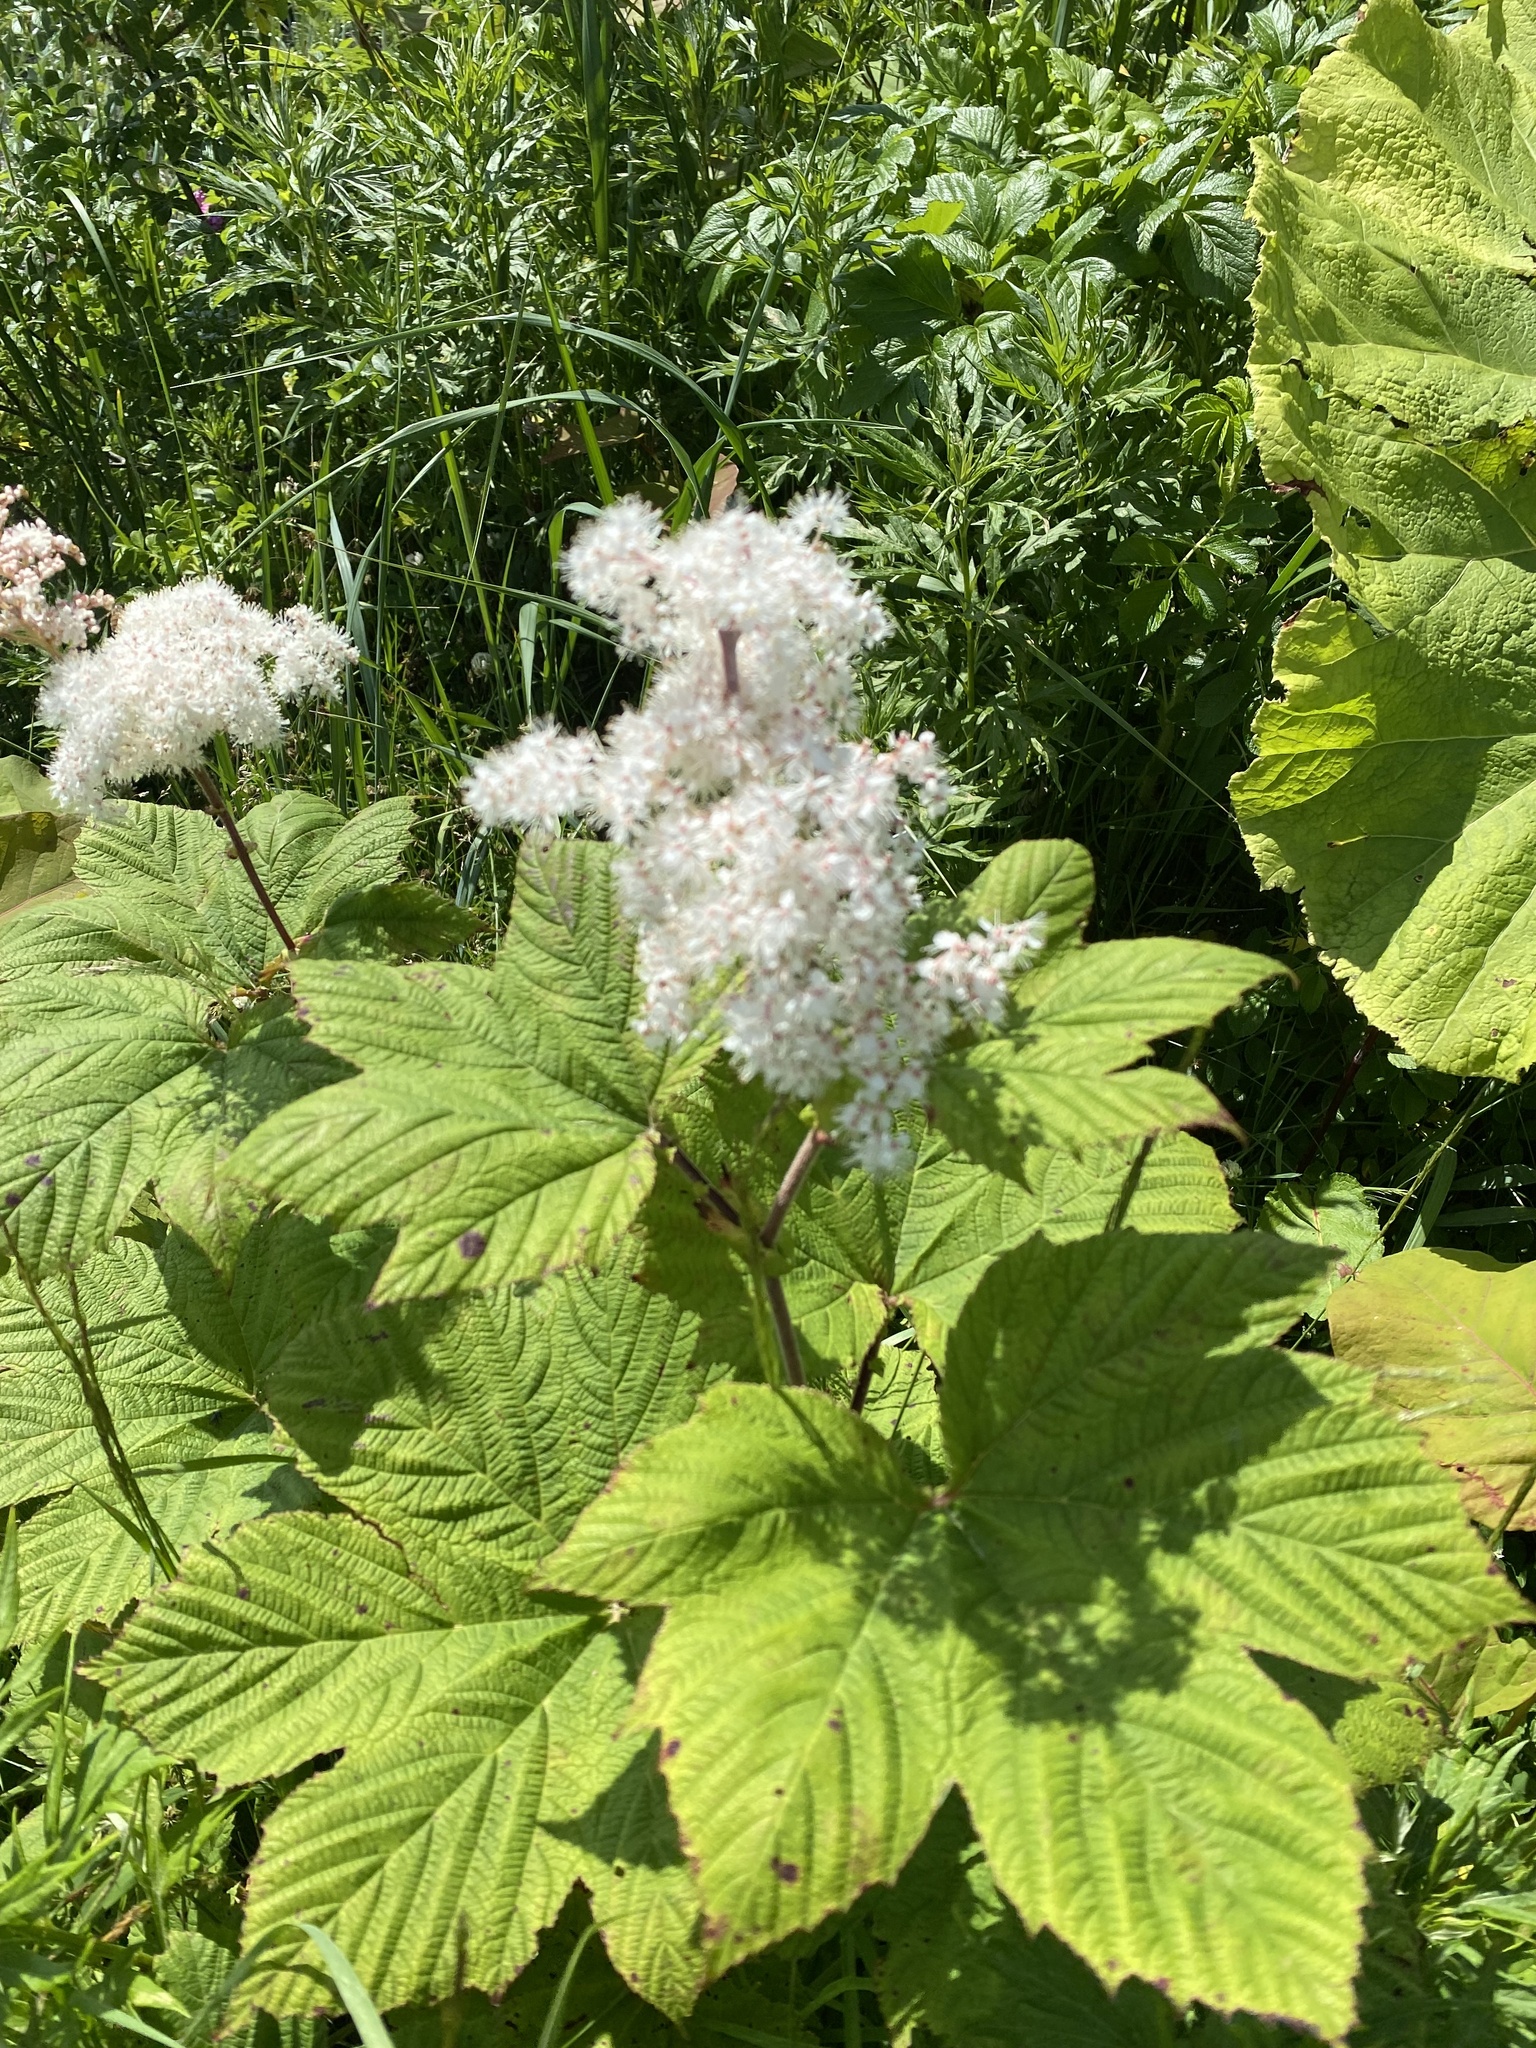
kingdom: Plantae
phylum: Tracheophyta
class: Magnoliopsida
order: Rosales
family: Rosaceae
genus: Filipendula
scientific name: Filipendula camtschatica
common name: Giant meadowsweet
